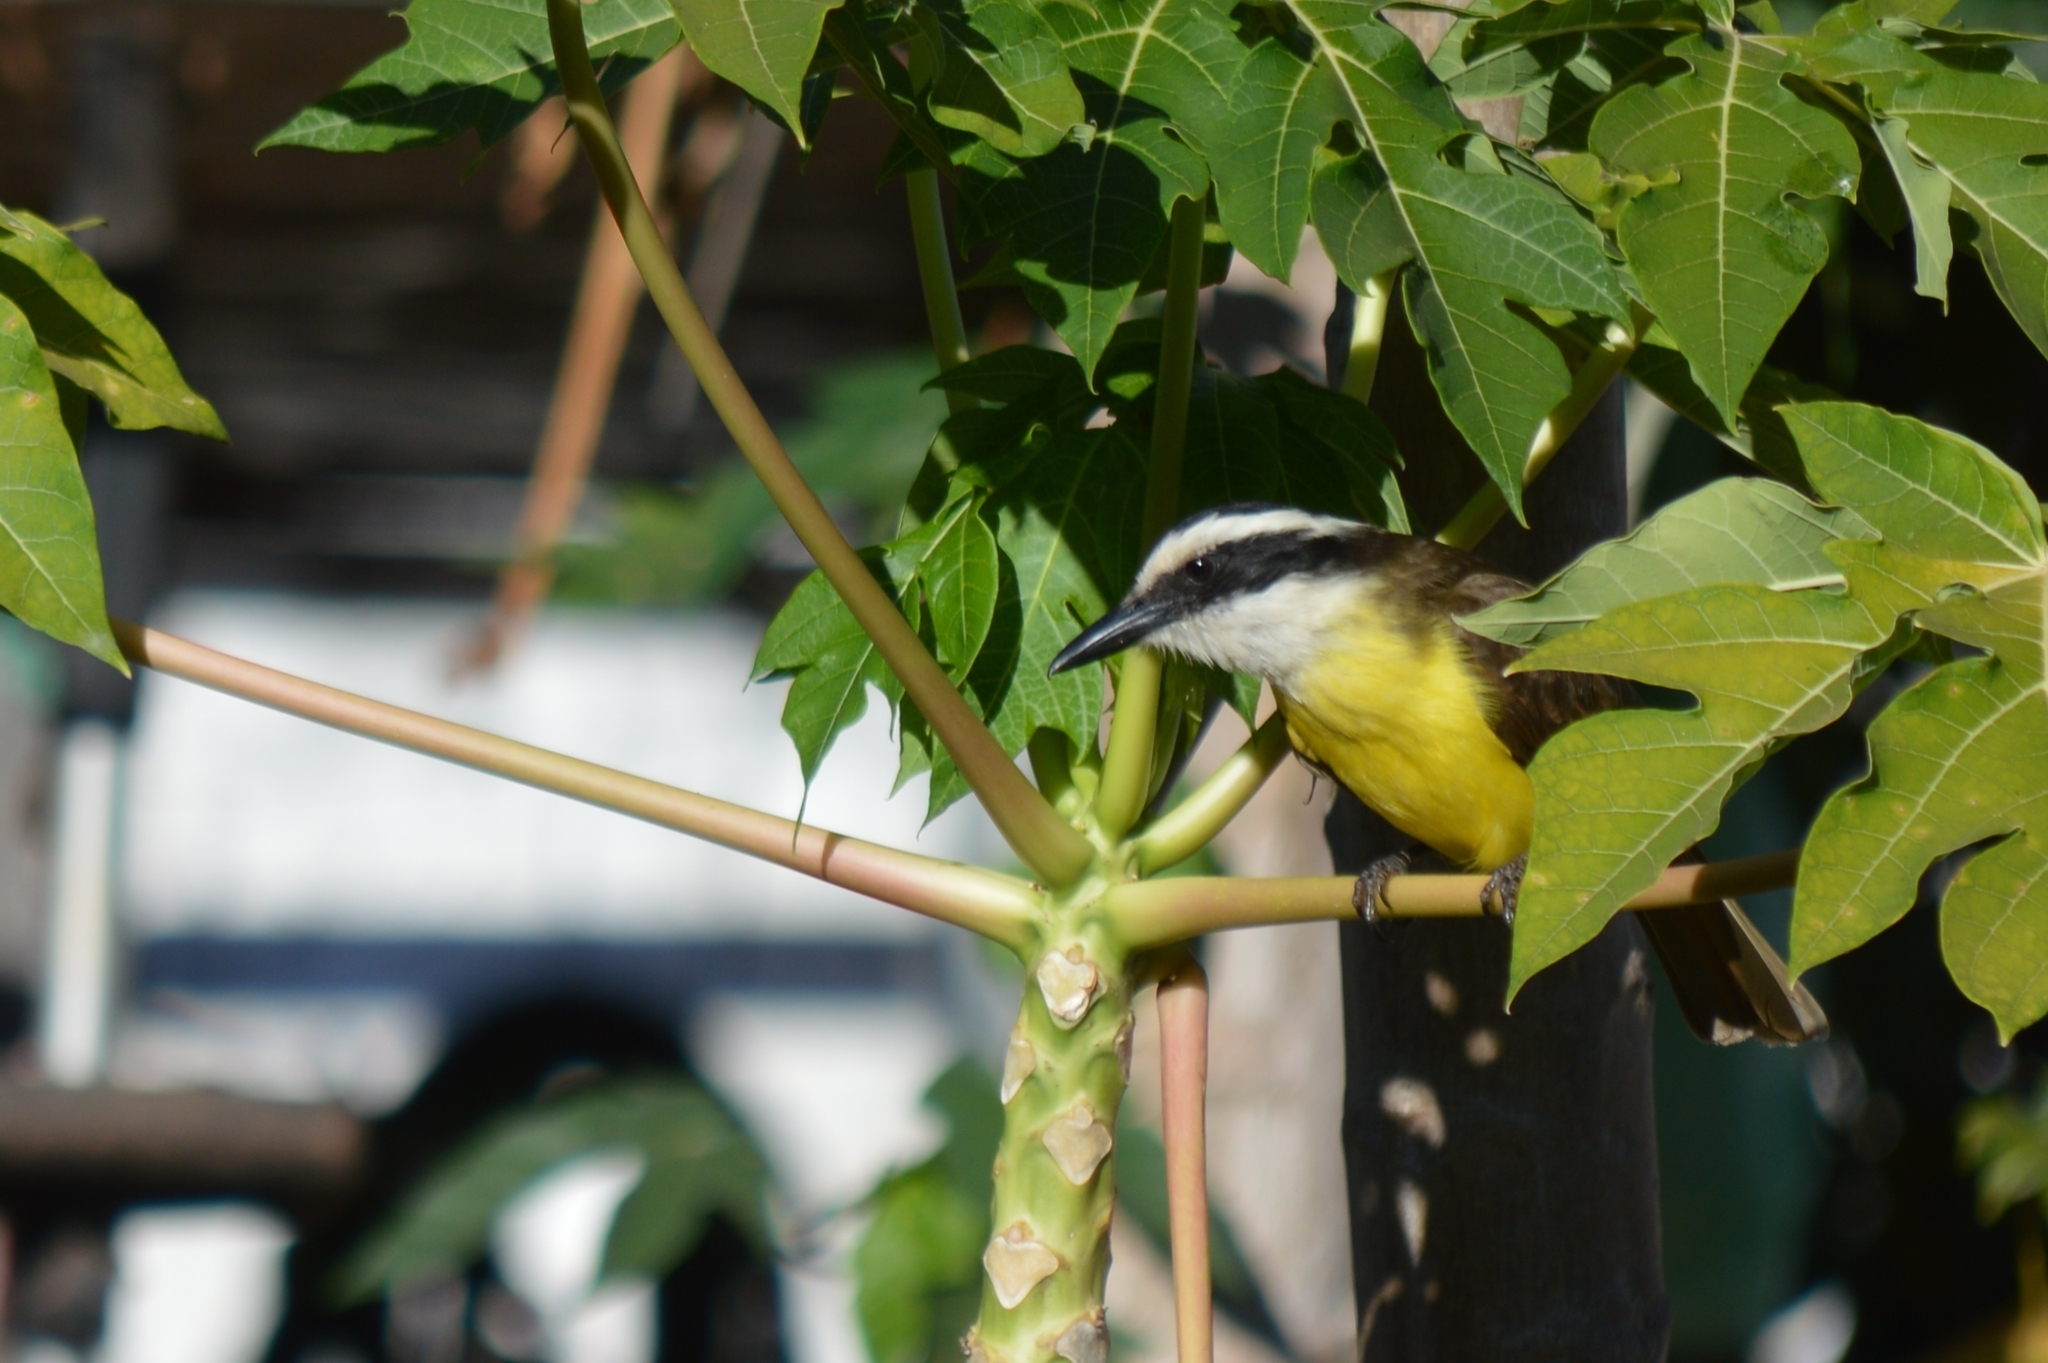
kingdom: Animalia
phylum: Chordata
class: Aves
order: Passeriformes
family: Tyrannidae
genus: Pitangus
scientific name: Pitangus sulphuratus
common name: Great kiskadee
